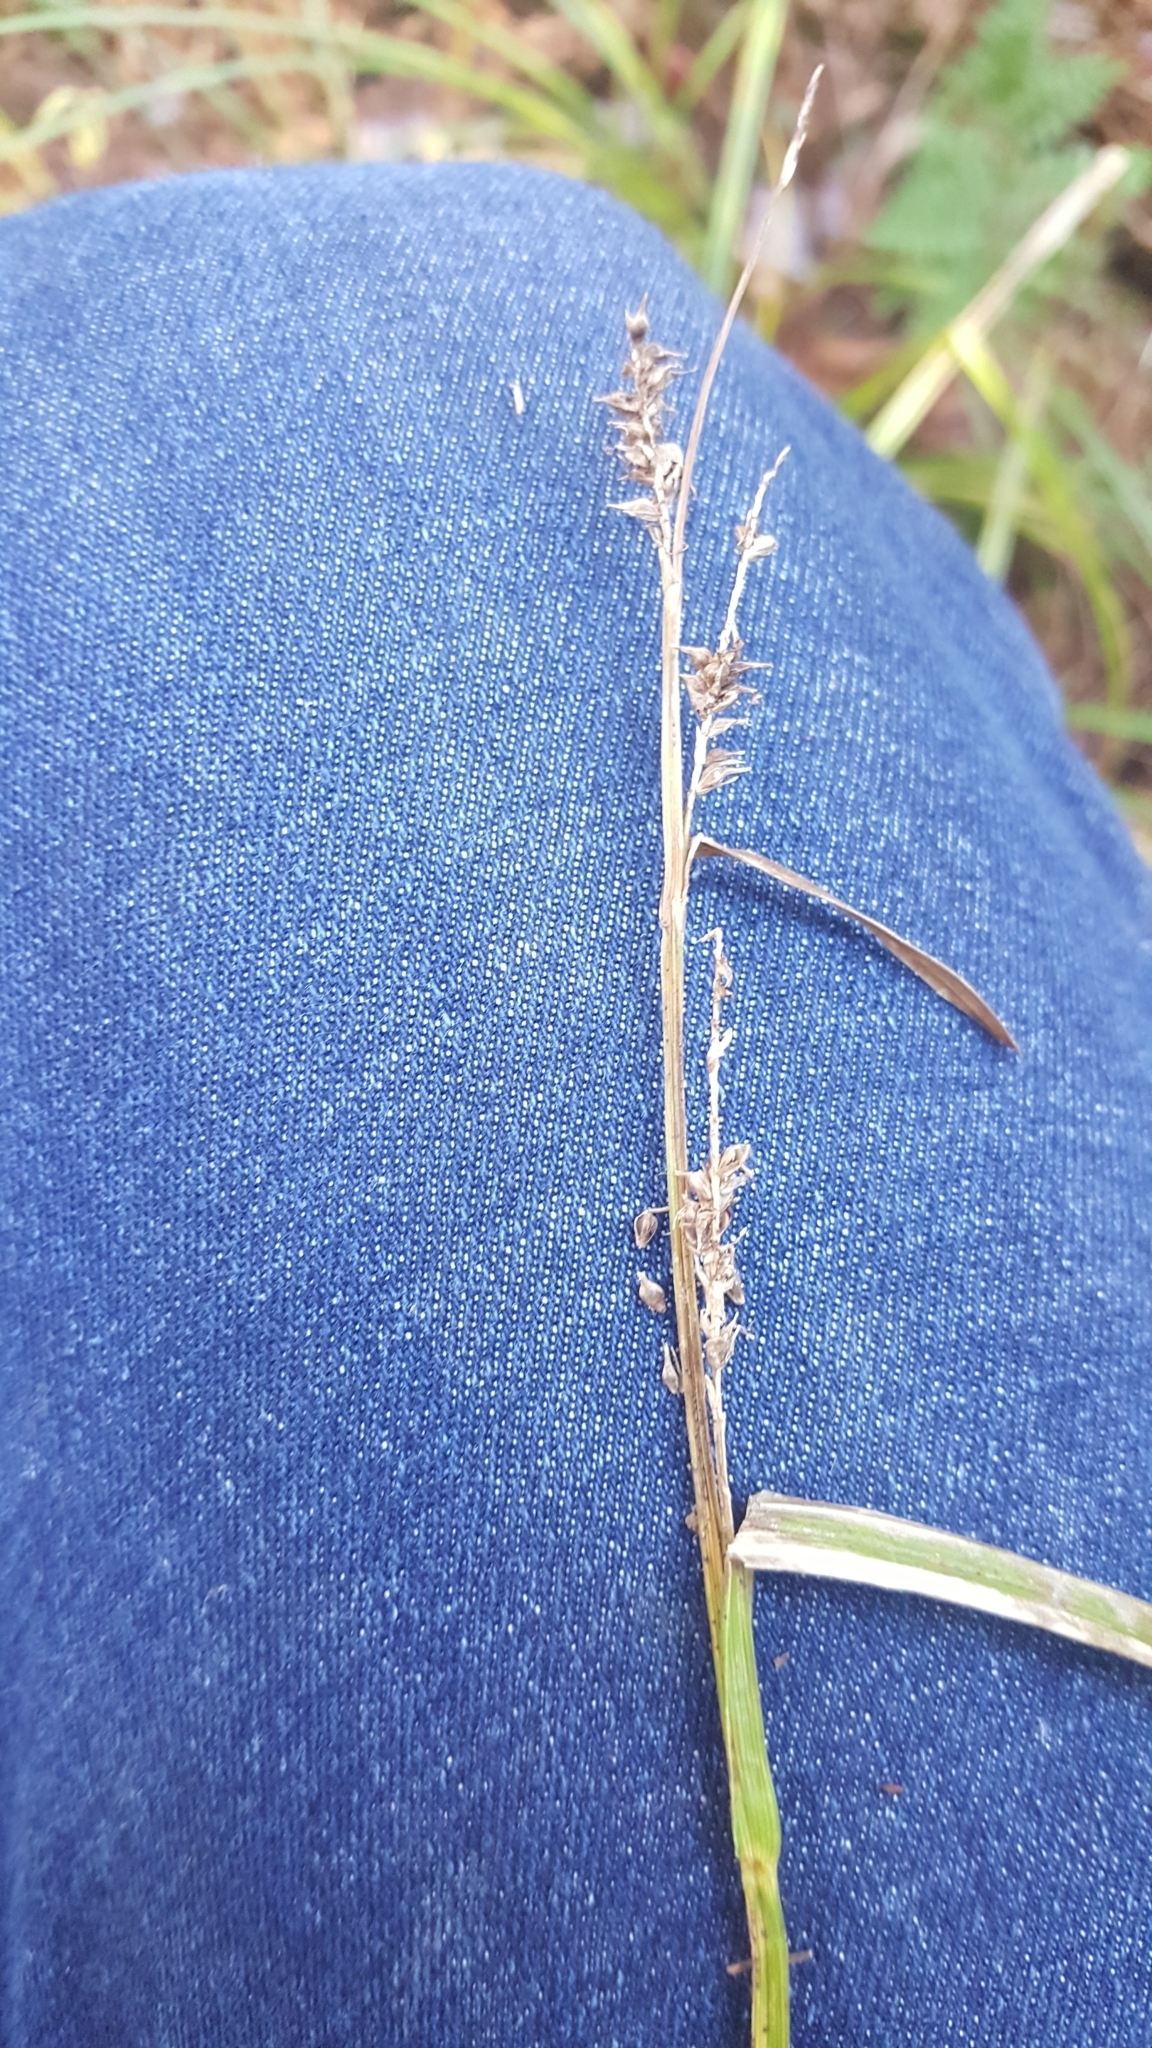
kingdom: Plantae
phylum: Tracheophyta
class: Liliopsida
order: Poales
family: Cyperaceae
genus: Carex
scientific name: Carex scabrata
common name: Eastern rough sedge
